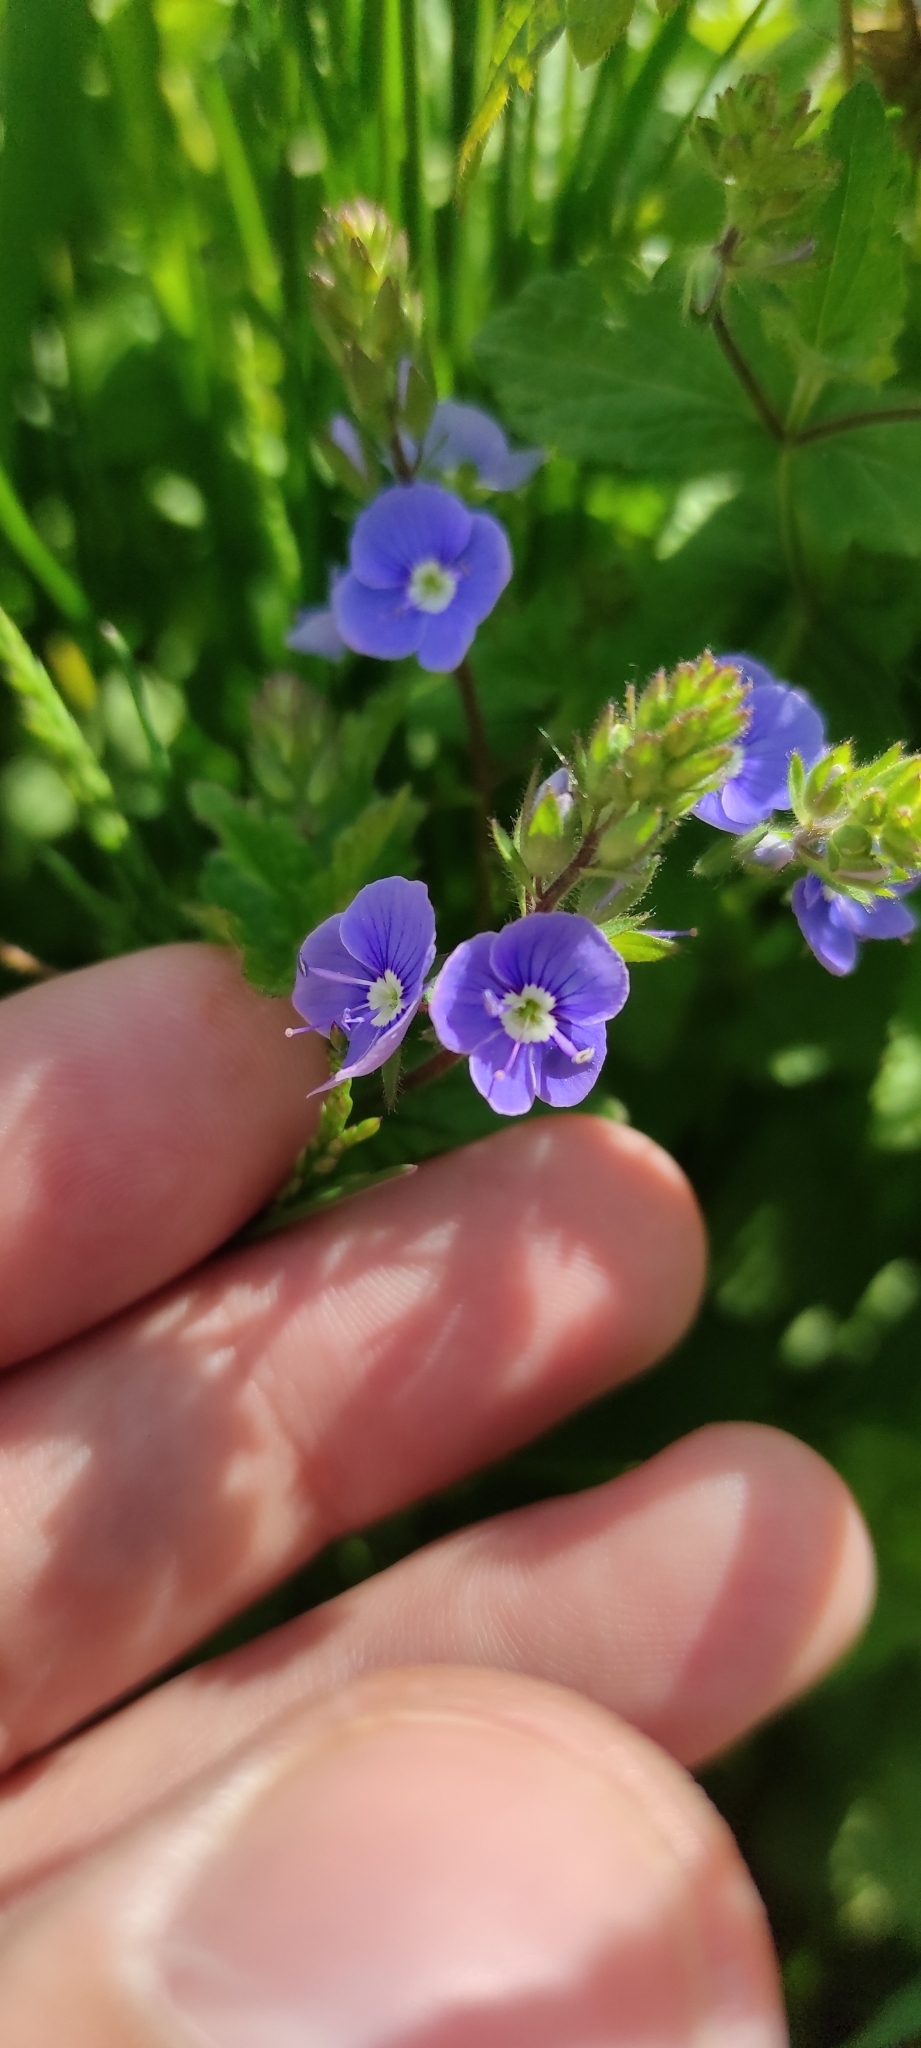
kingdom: Plantae
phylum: Tracheophyta
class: Magnoliopsida
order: Lamiales
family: Plantaginaceae
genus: Veronica
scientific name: Veronica chamaedrys
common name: Germander speedwell
